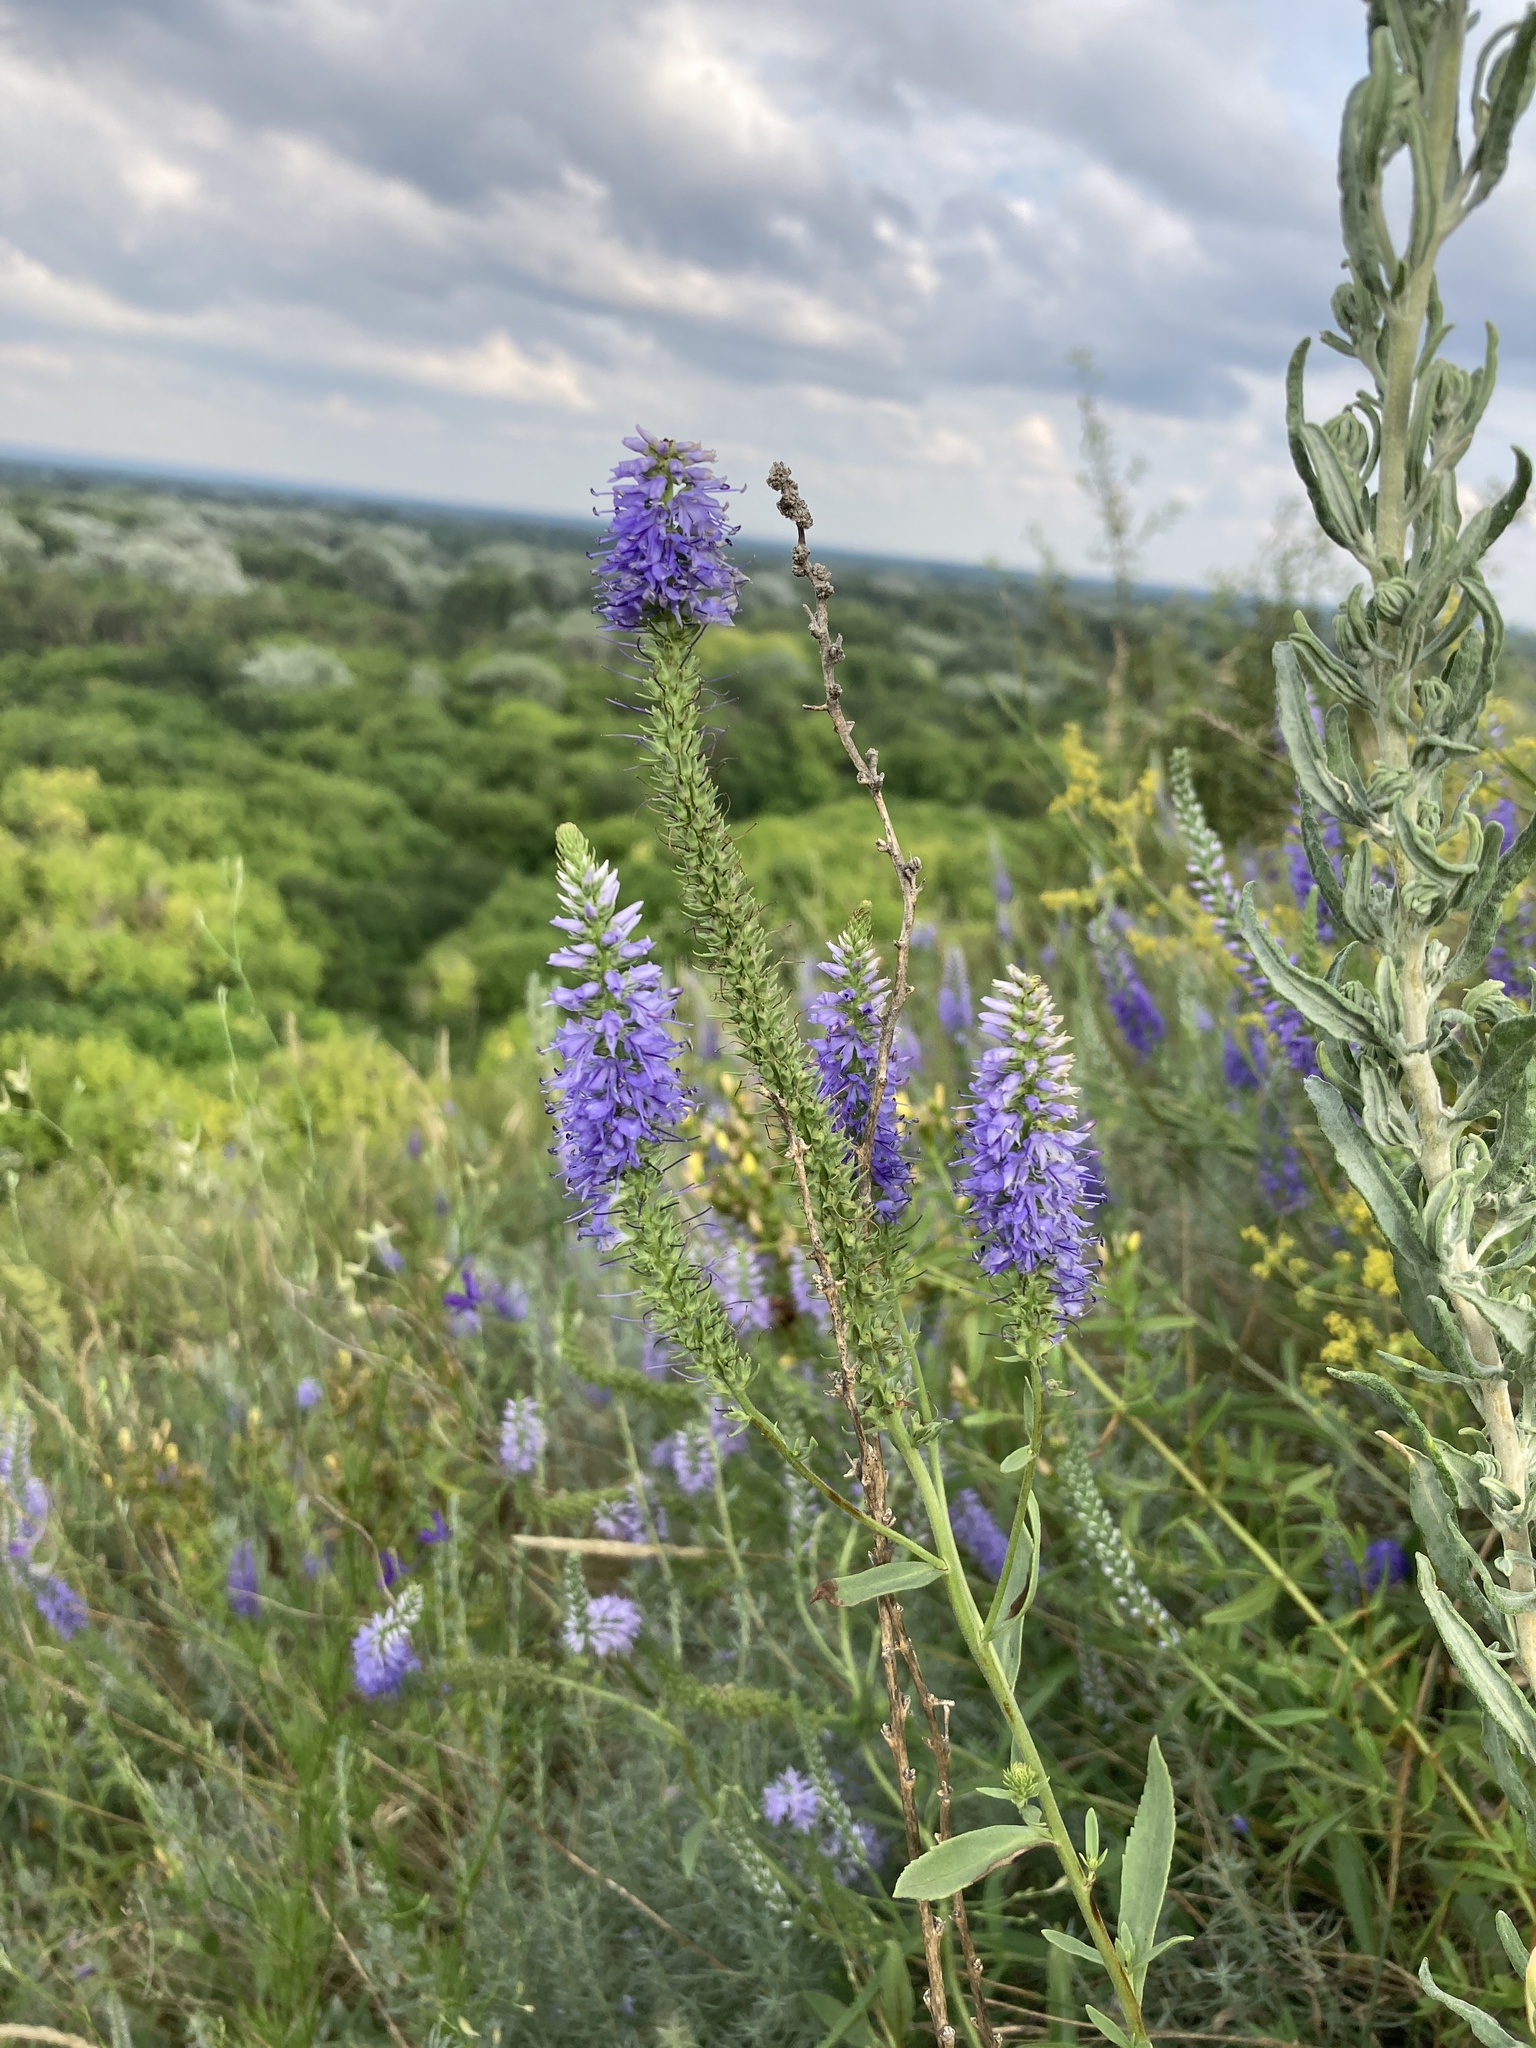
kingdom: Plantae
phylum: Tracheophyta
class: Magnoliopsida
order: Lamiales
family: Plantaginaceae
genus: Veronica
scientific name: Veronica spicata
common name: Spiked speedwell
